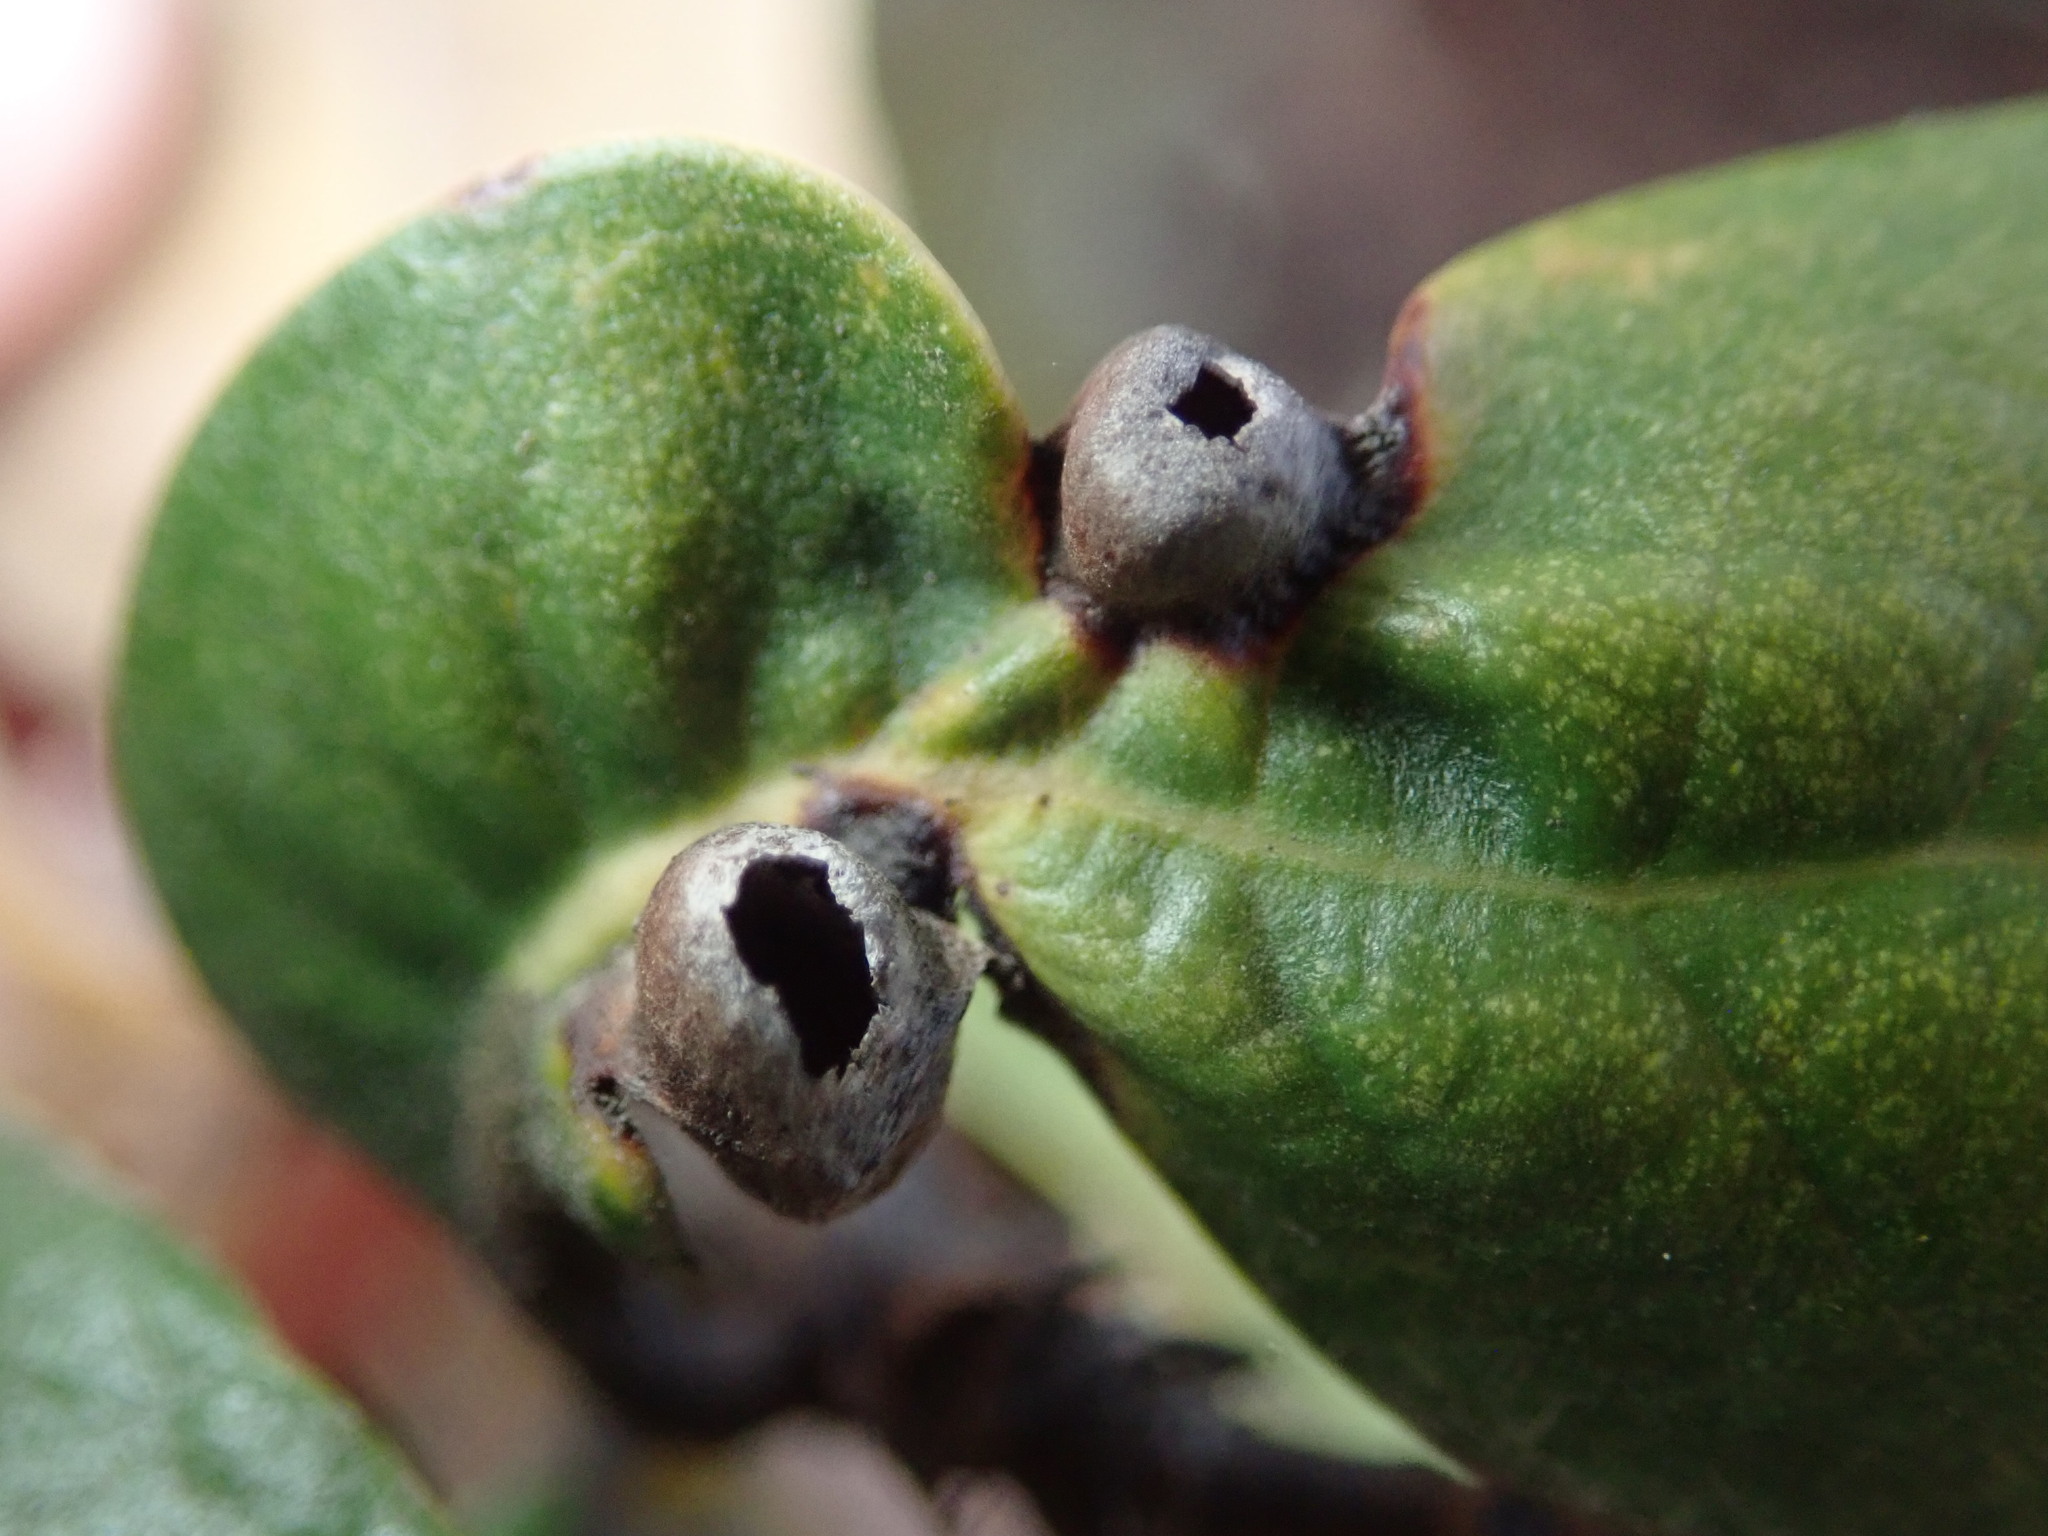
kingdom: Animalia
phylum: Arthropoda
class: Insecta
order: Hymenoptera
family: Cynipidae
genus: Dryocosmus
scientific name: Dryocosmus juliae
